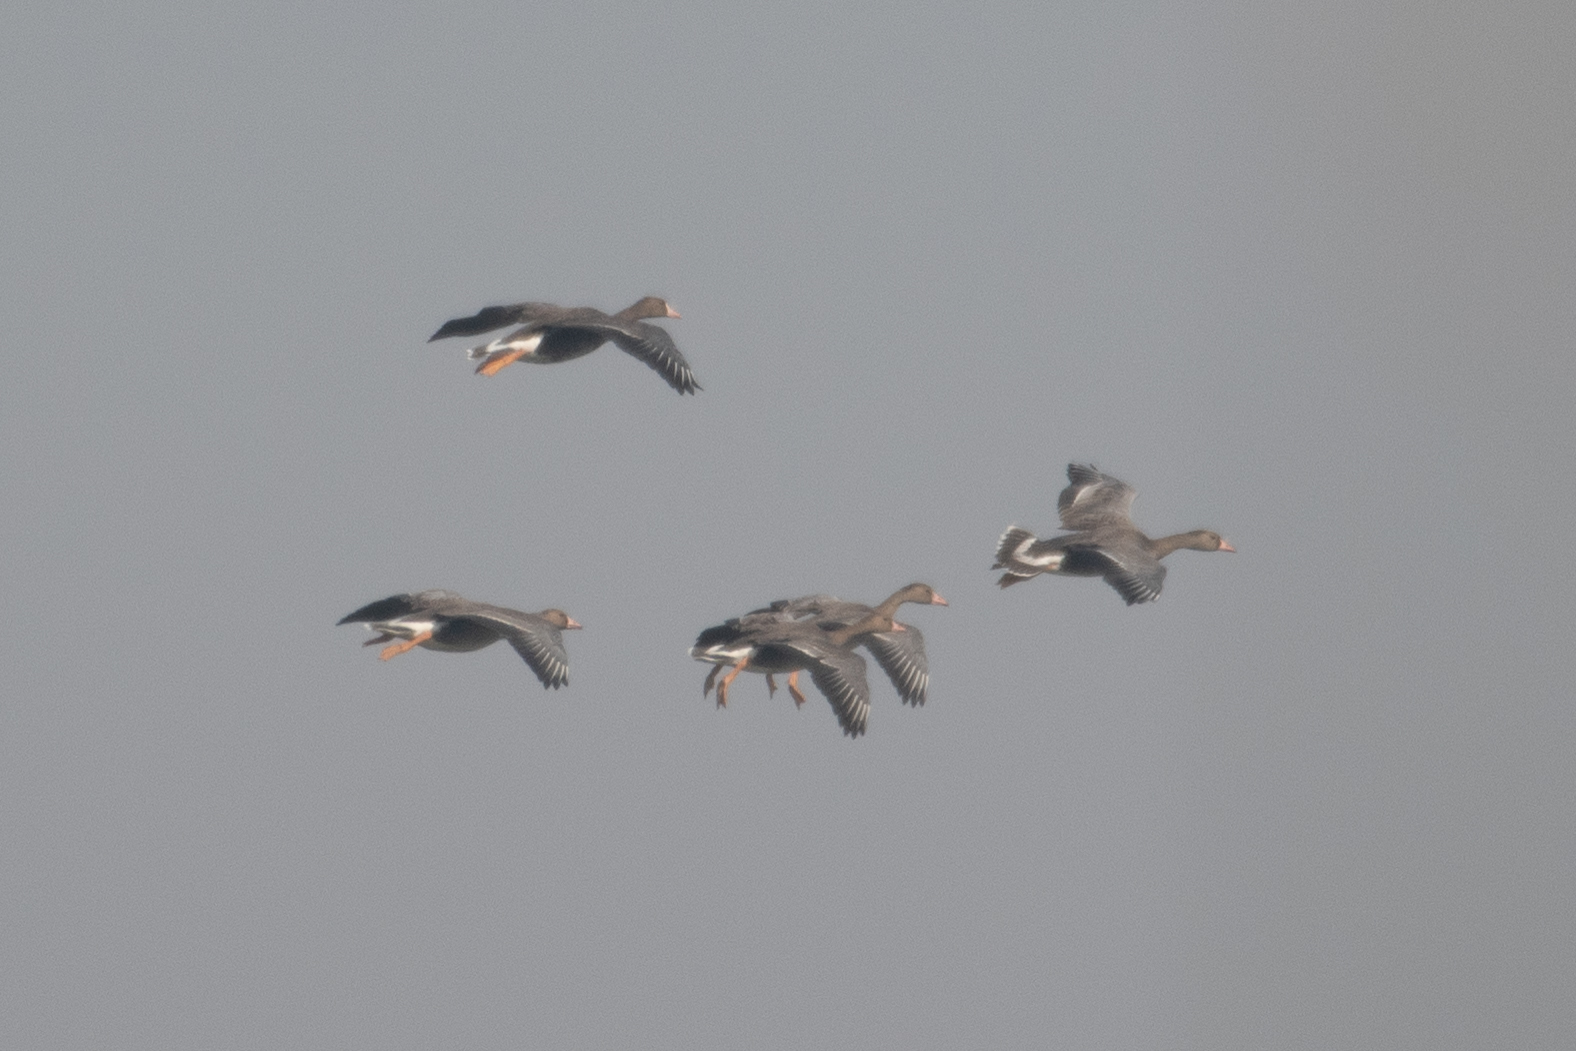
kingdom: Animalia
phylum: Chordata
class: Aves
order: Anseriformes
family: Anatidae
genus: Anser
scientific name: Anser albifrons
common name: Greater white-fronted goose
